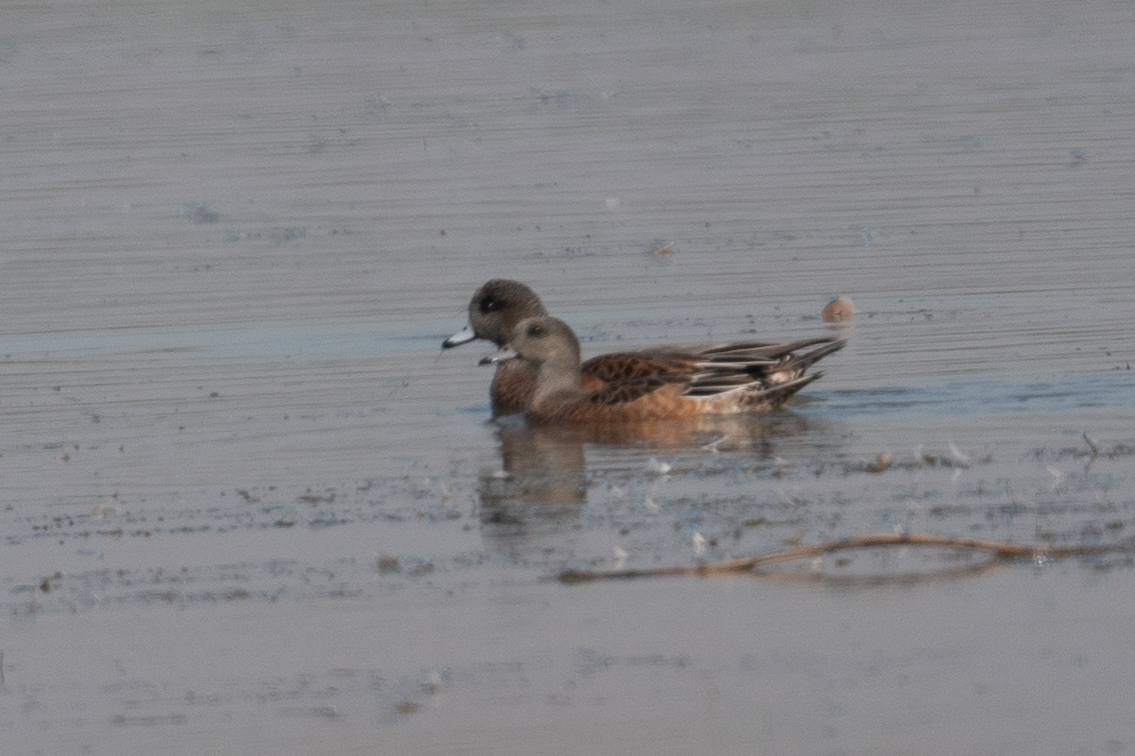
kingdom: Animalia
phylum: Chordata
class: Aves
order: Anseriformes
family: Anatidae
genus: Mareca
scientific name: Mareca americana
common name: American wigeon
